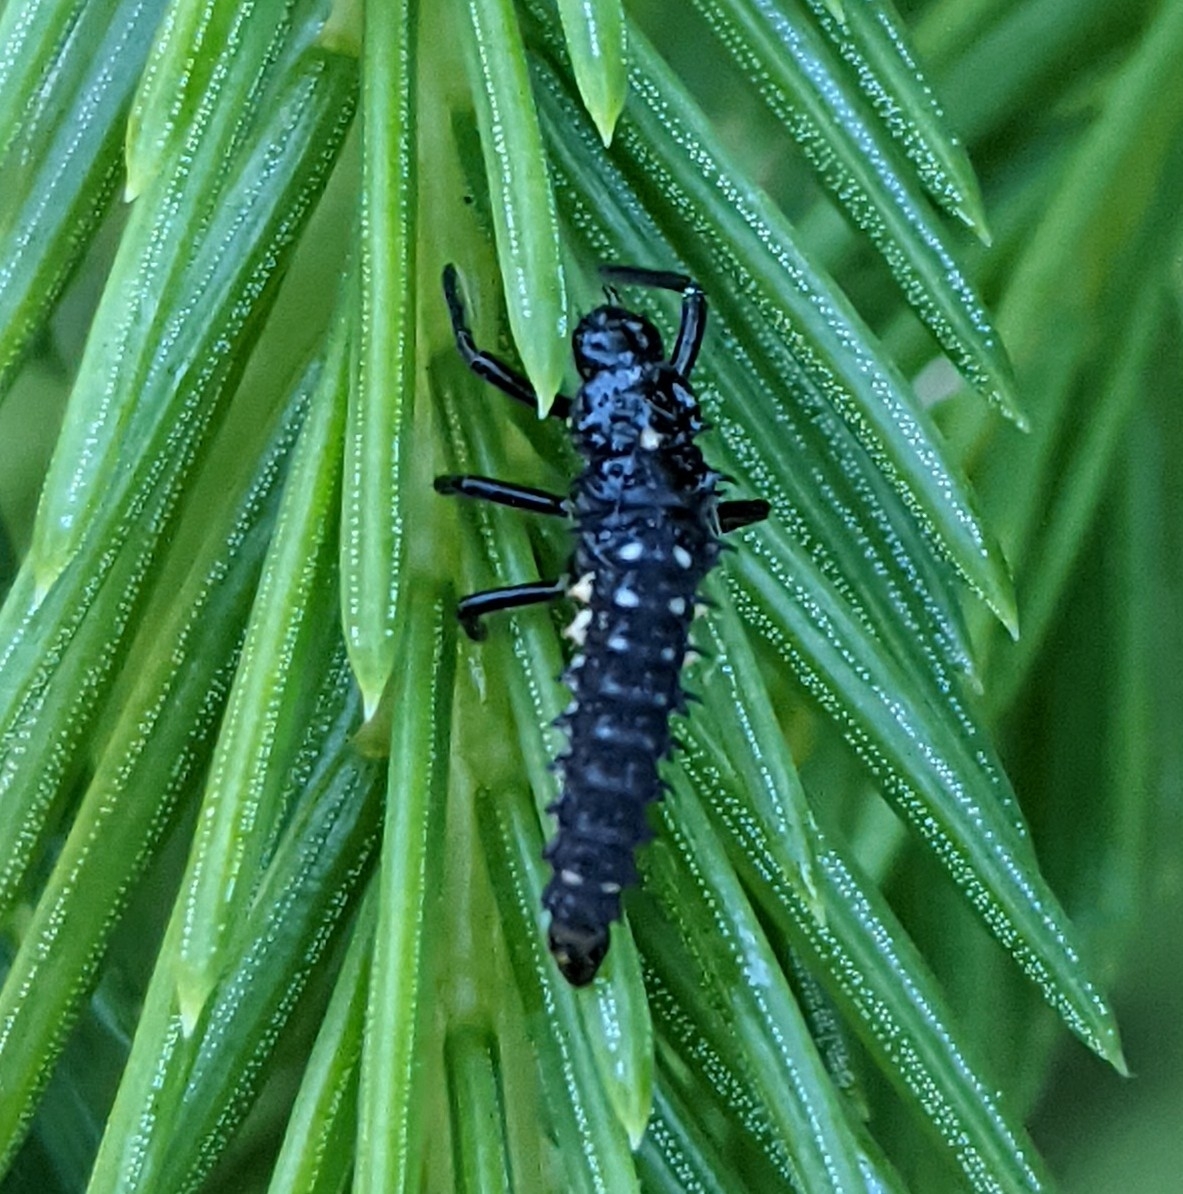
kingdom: Animalia
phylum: Arthropoda
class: Insecta
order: Coleoptera
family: Coccinellidae
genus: Anatis
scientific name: Anatis ocellata
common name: Eyed ladybird
